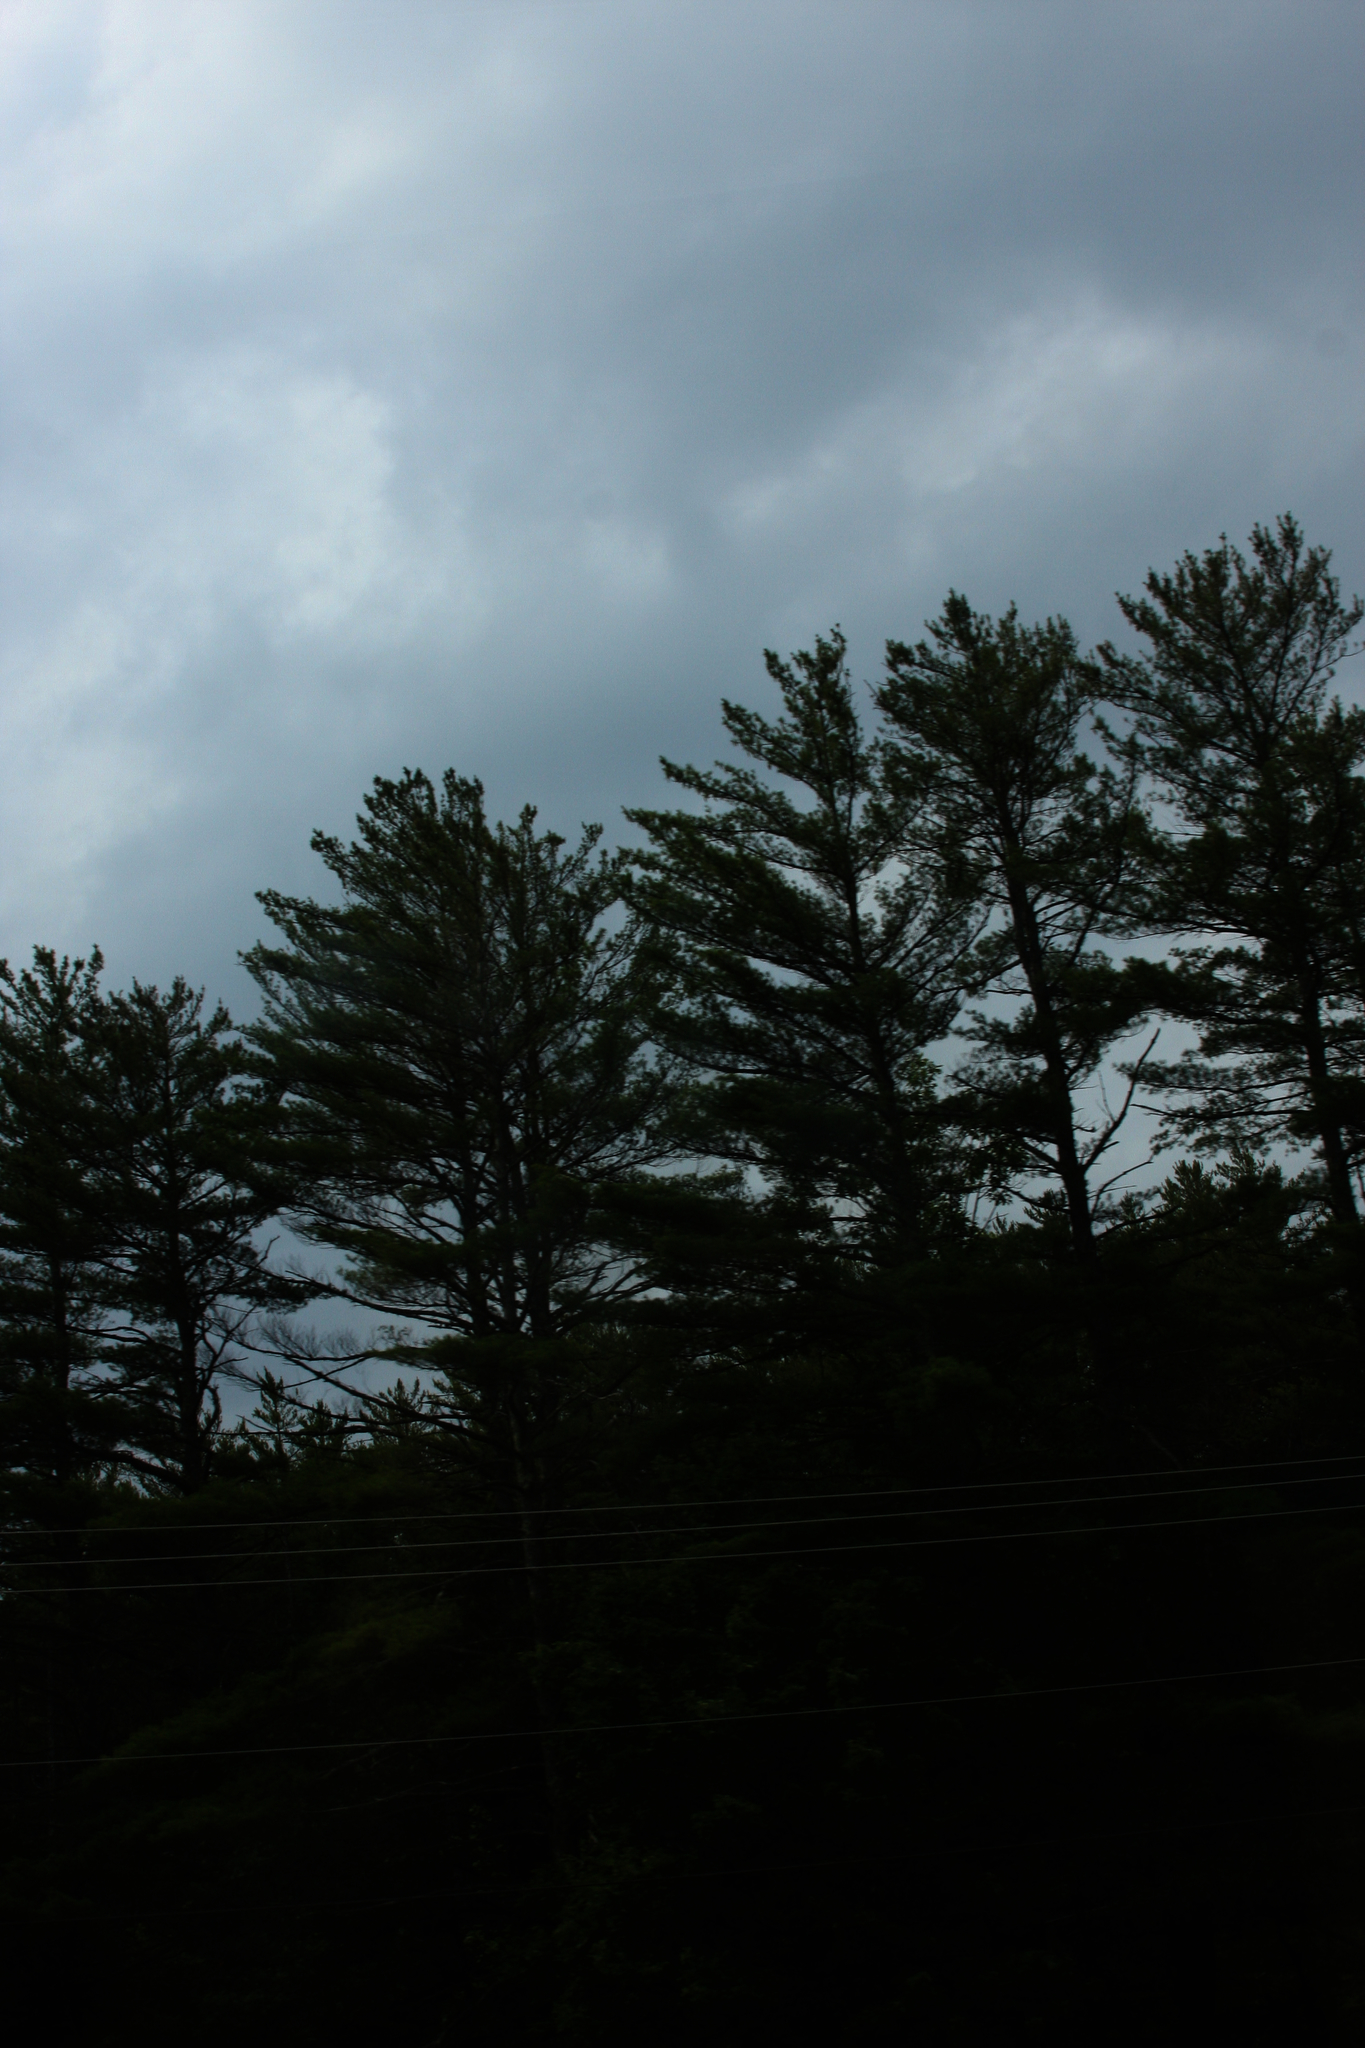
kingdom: Plantae
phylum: Tracheophyta
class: Pinopsida
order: Pinales
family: Pinaceae
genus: Pinus
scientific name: Pinus strobus
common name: Weymouth pine
